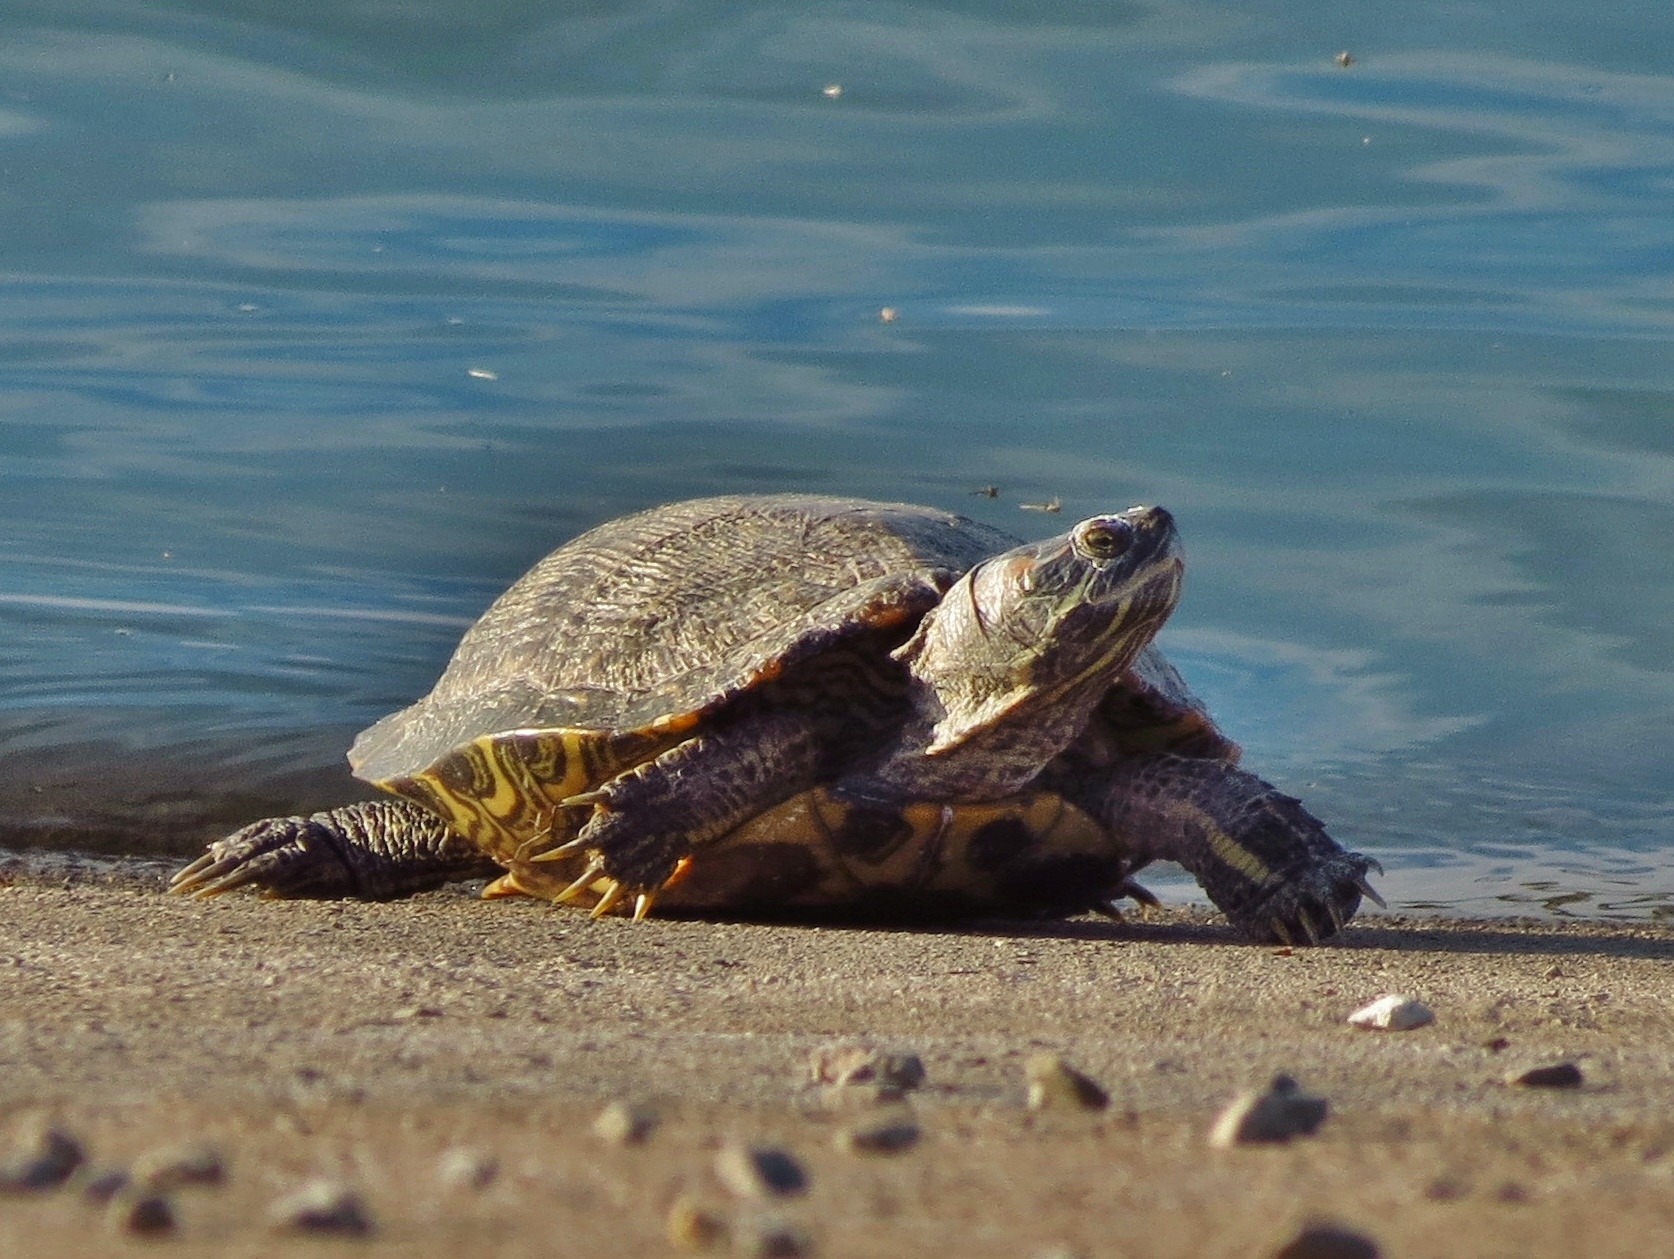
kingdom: Animalia
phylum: Chordata
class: Testudines
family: Emydidae
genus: Trachemys
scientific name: Trachemys scripta
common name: Slider
